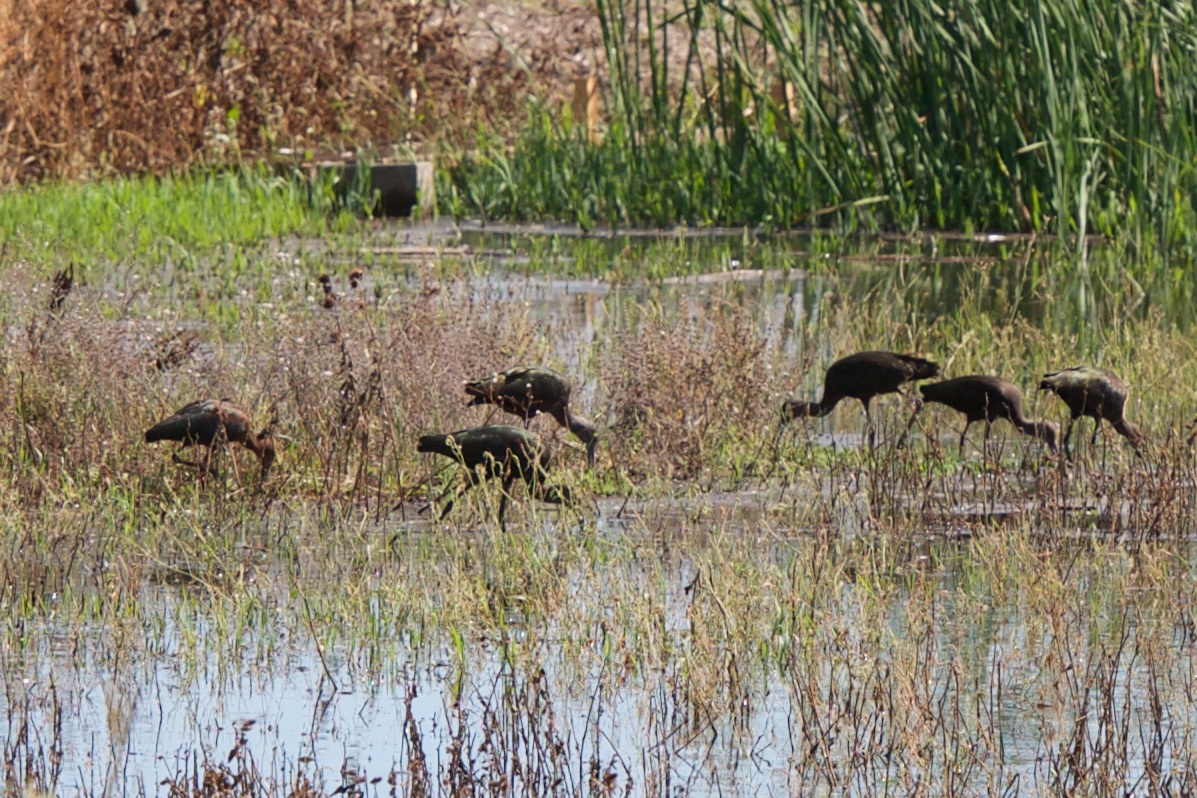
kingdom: Animalia
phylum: Chordata
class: Aves
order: Pelecaniformes
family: Threskiornithidae
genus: Plegadis
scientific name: Plegadis chihi
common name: White-faced ibis
